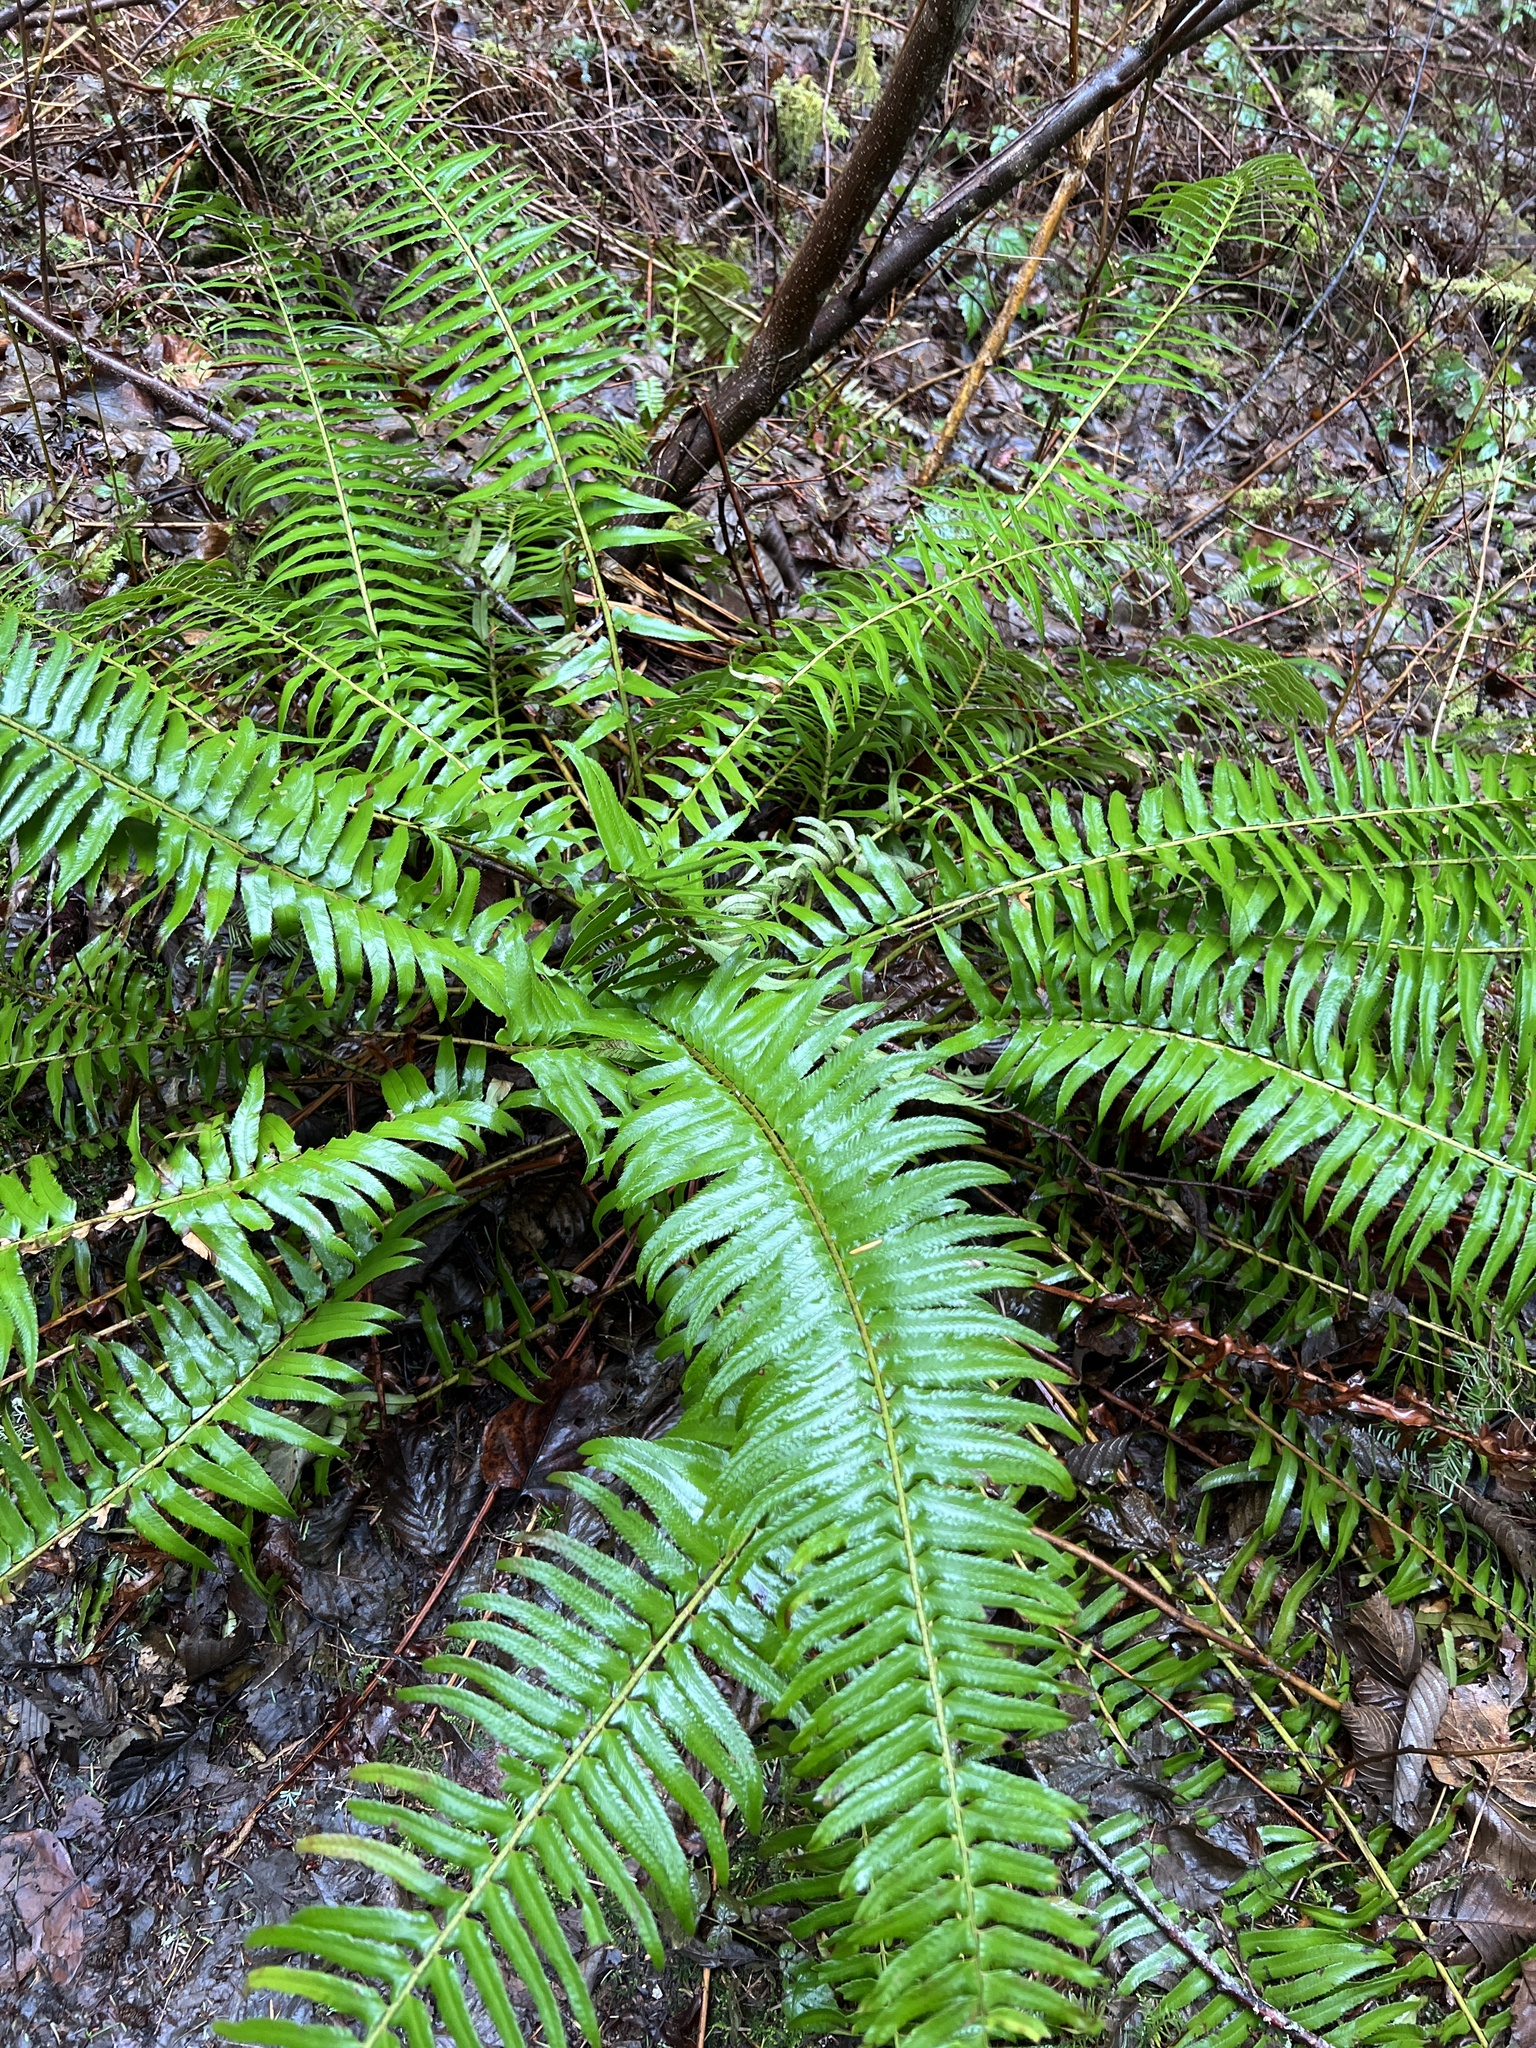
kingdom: Plantae
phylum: Tracheophyta
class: Polypodiopsida
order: Polypodiales
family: Dryopteridaceae
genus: Polystichum
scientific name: Polystichum munitum
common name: Western sword-fern
